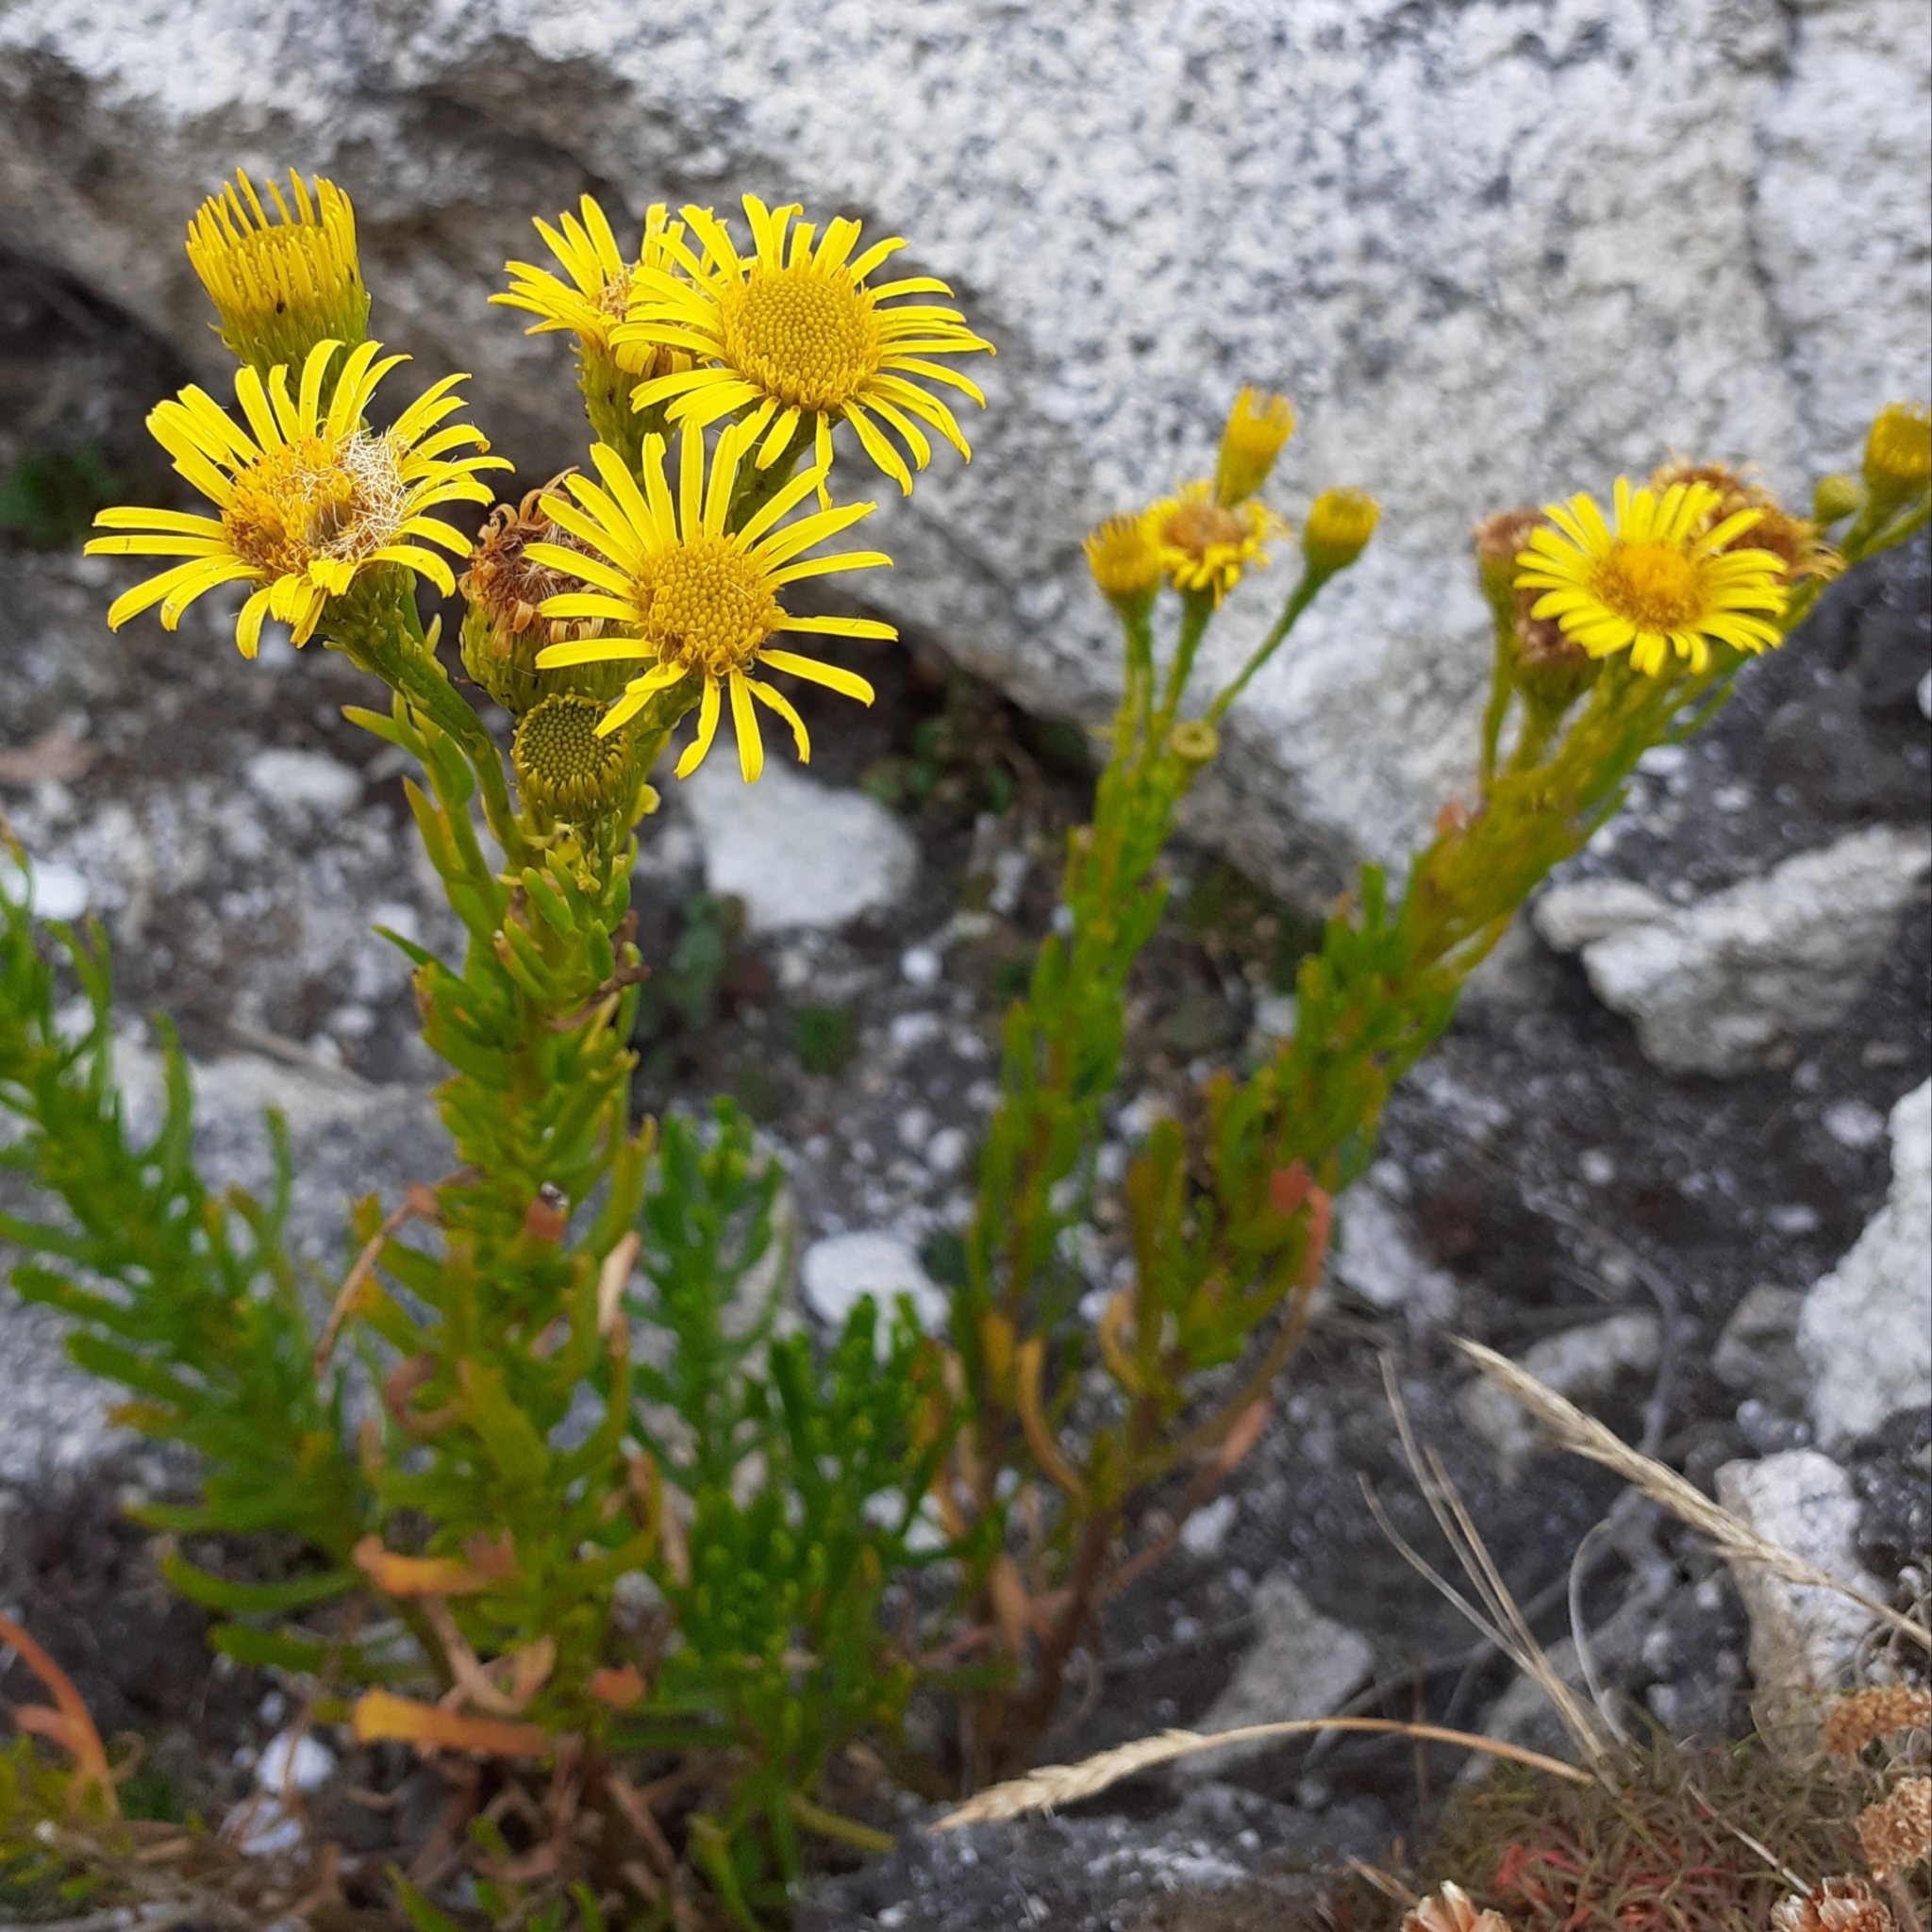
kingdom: Plantae
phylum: Tracheophyta
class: Magnoliopsida
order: Asterales
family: Asteraceae
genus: Limbarda
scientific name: Limbarda crithmoides
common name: Golden samphire
